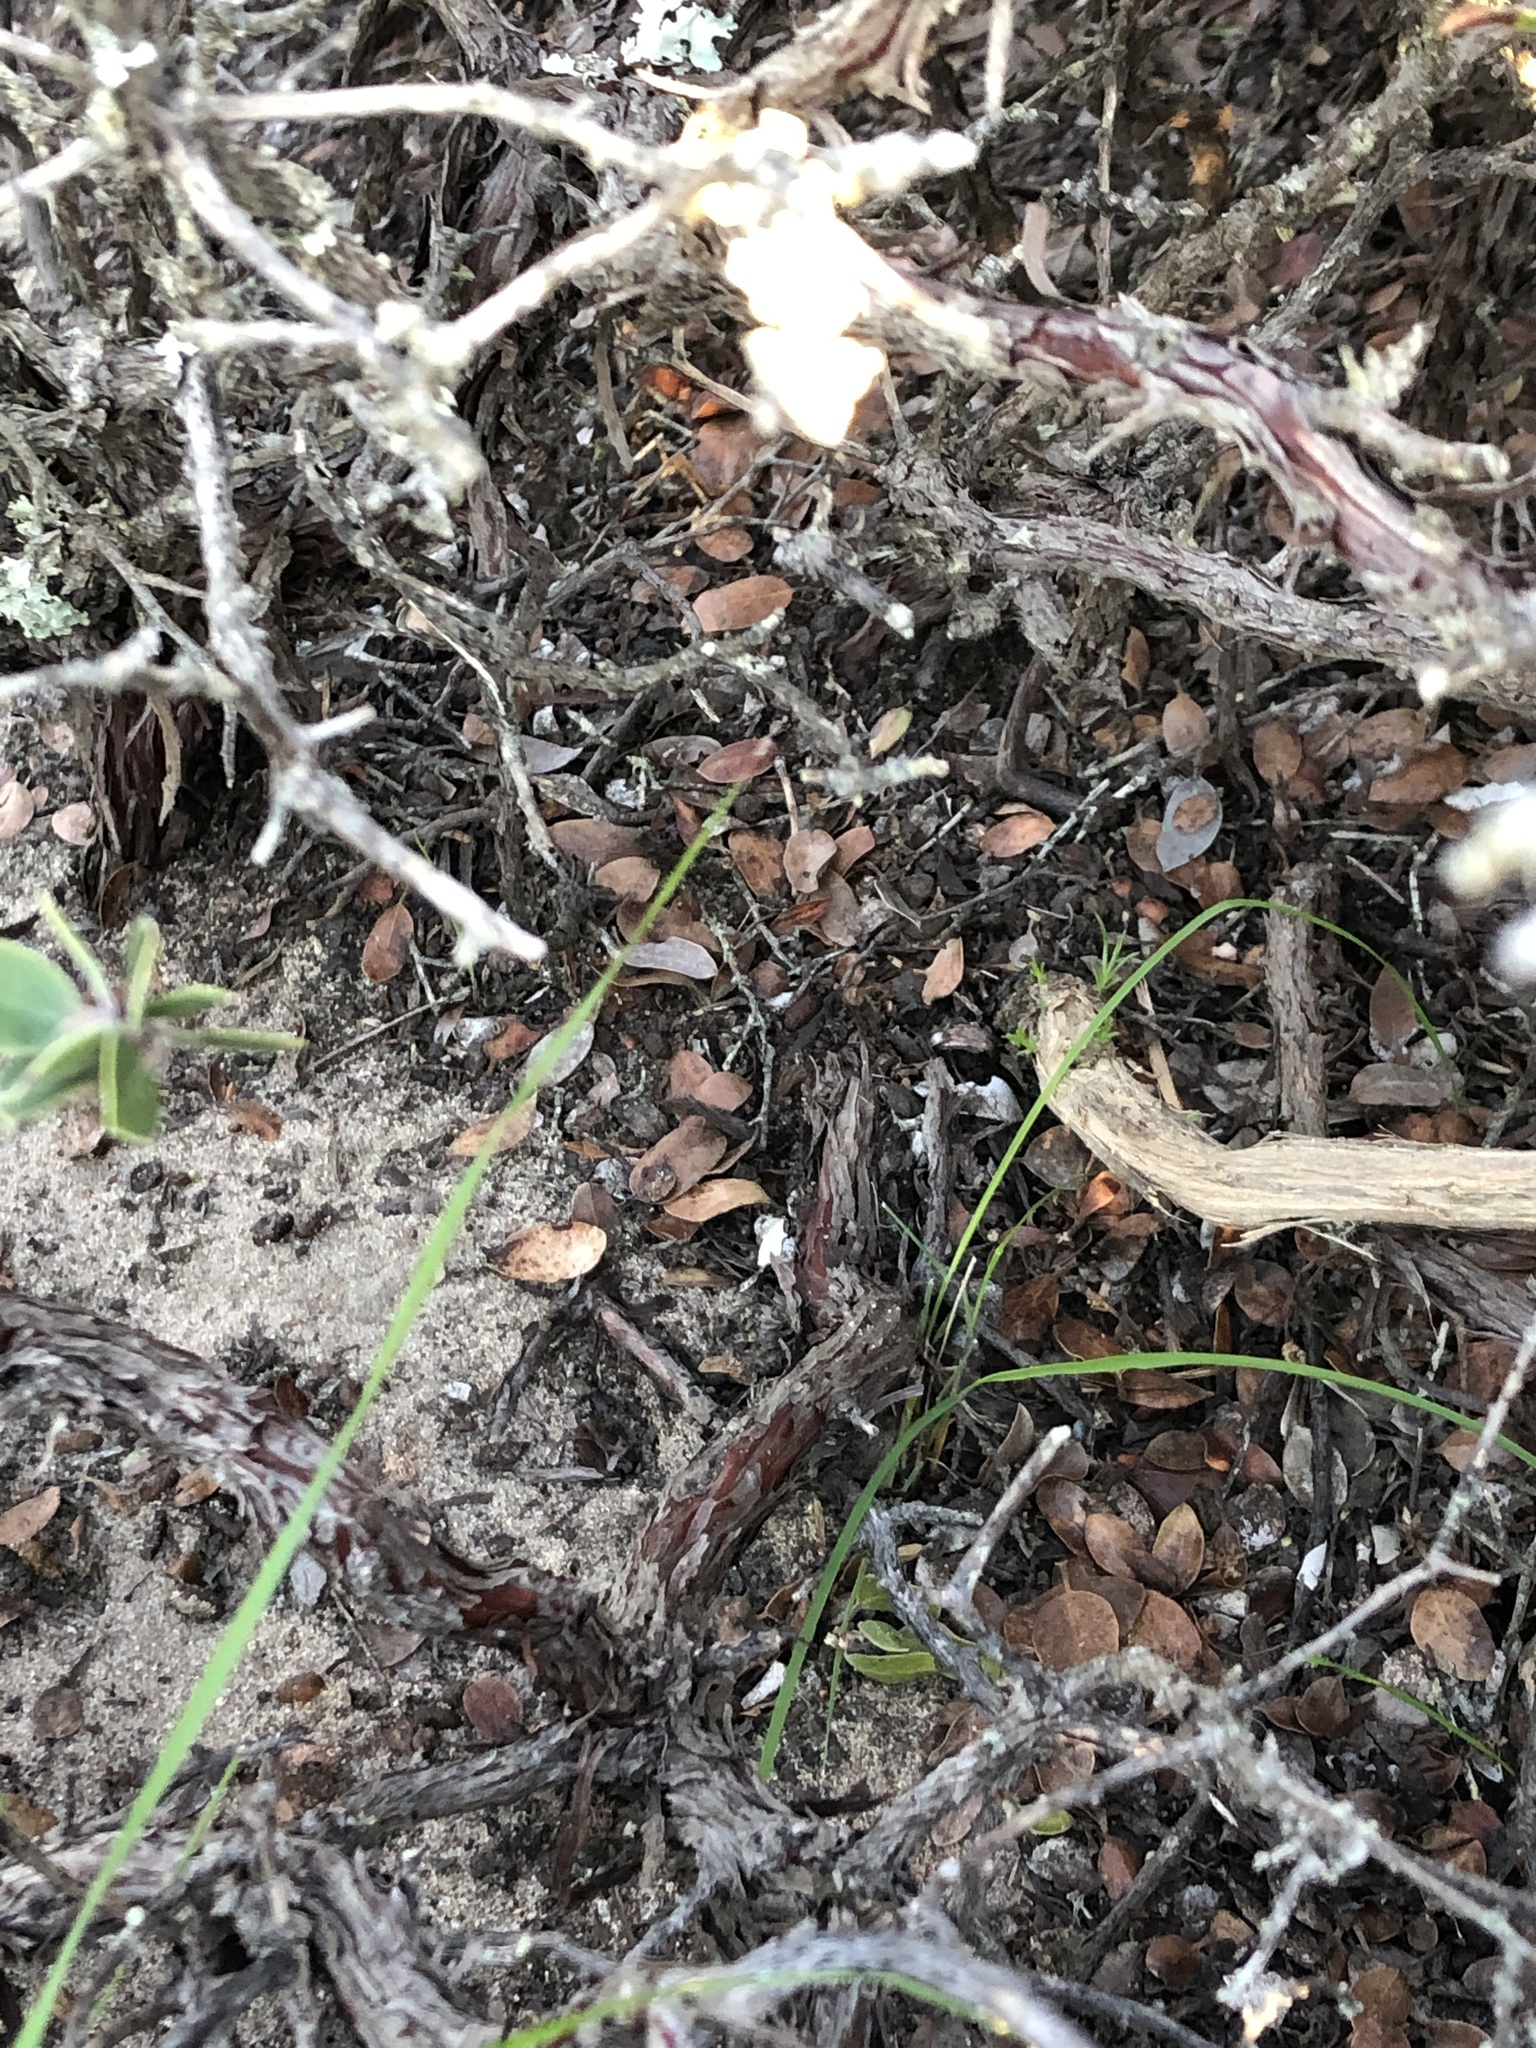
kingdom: Plantae
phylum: Tracheophyta
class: Magnoliopsida
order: Ericales
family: Ericaceae
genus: Arctostaphylos
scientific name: Arctostaphylos rudis
